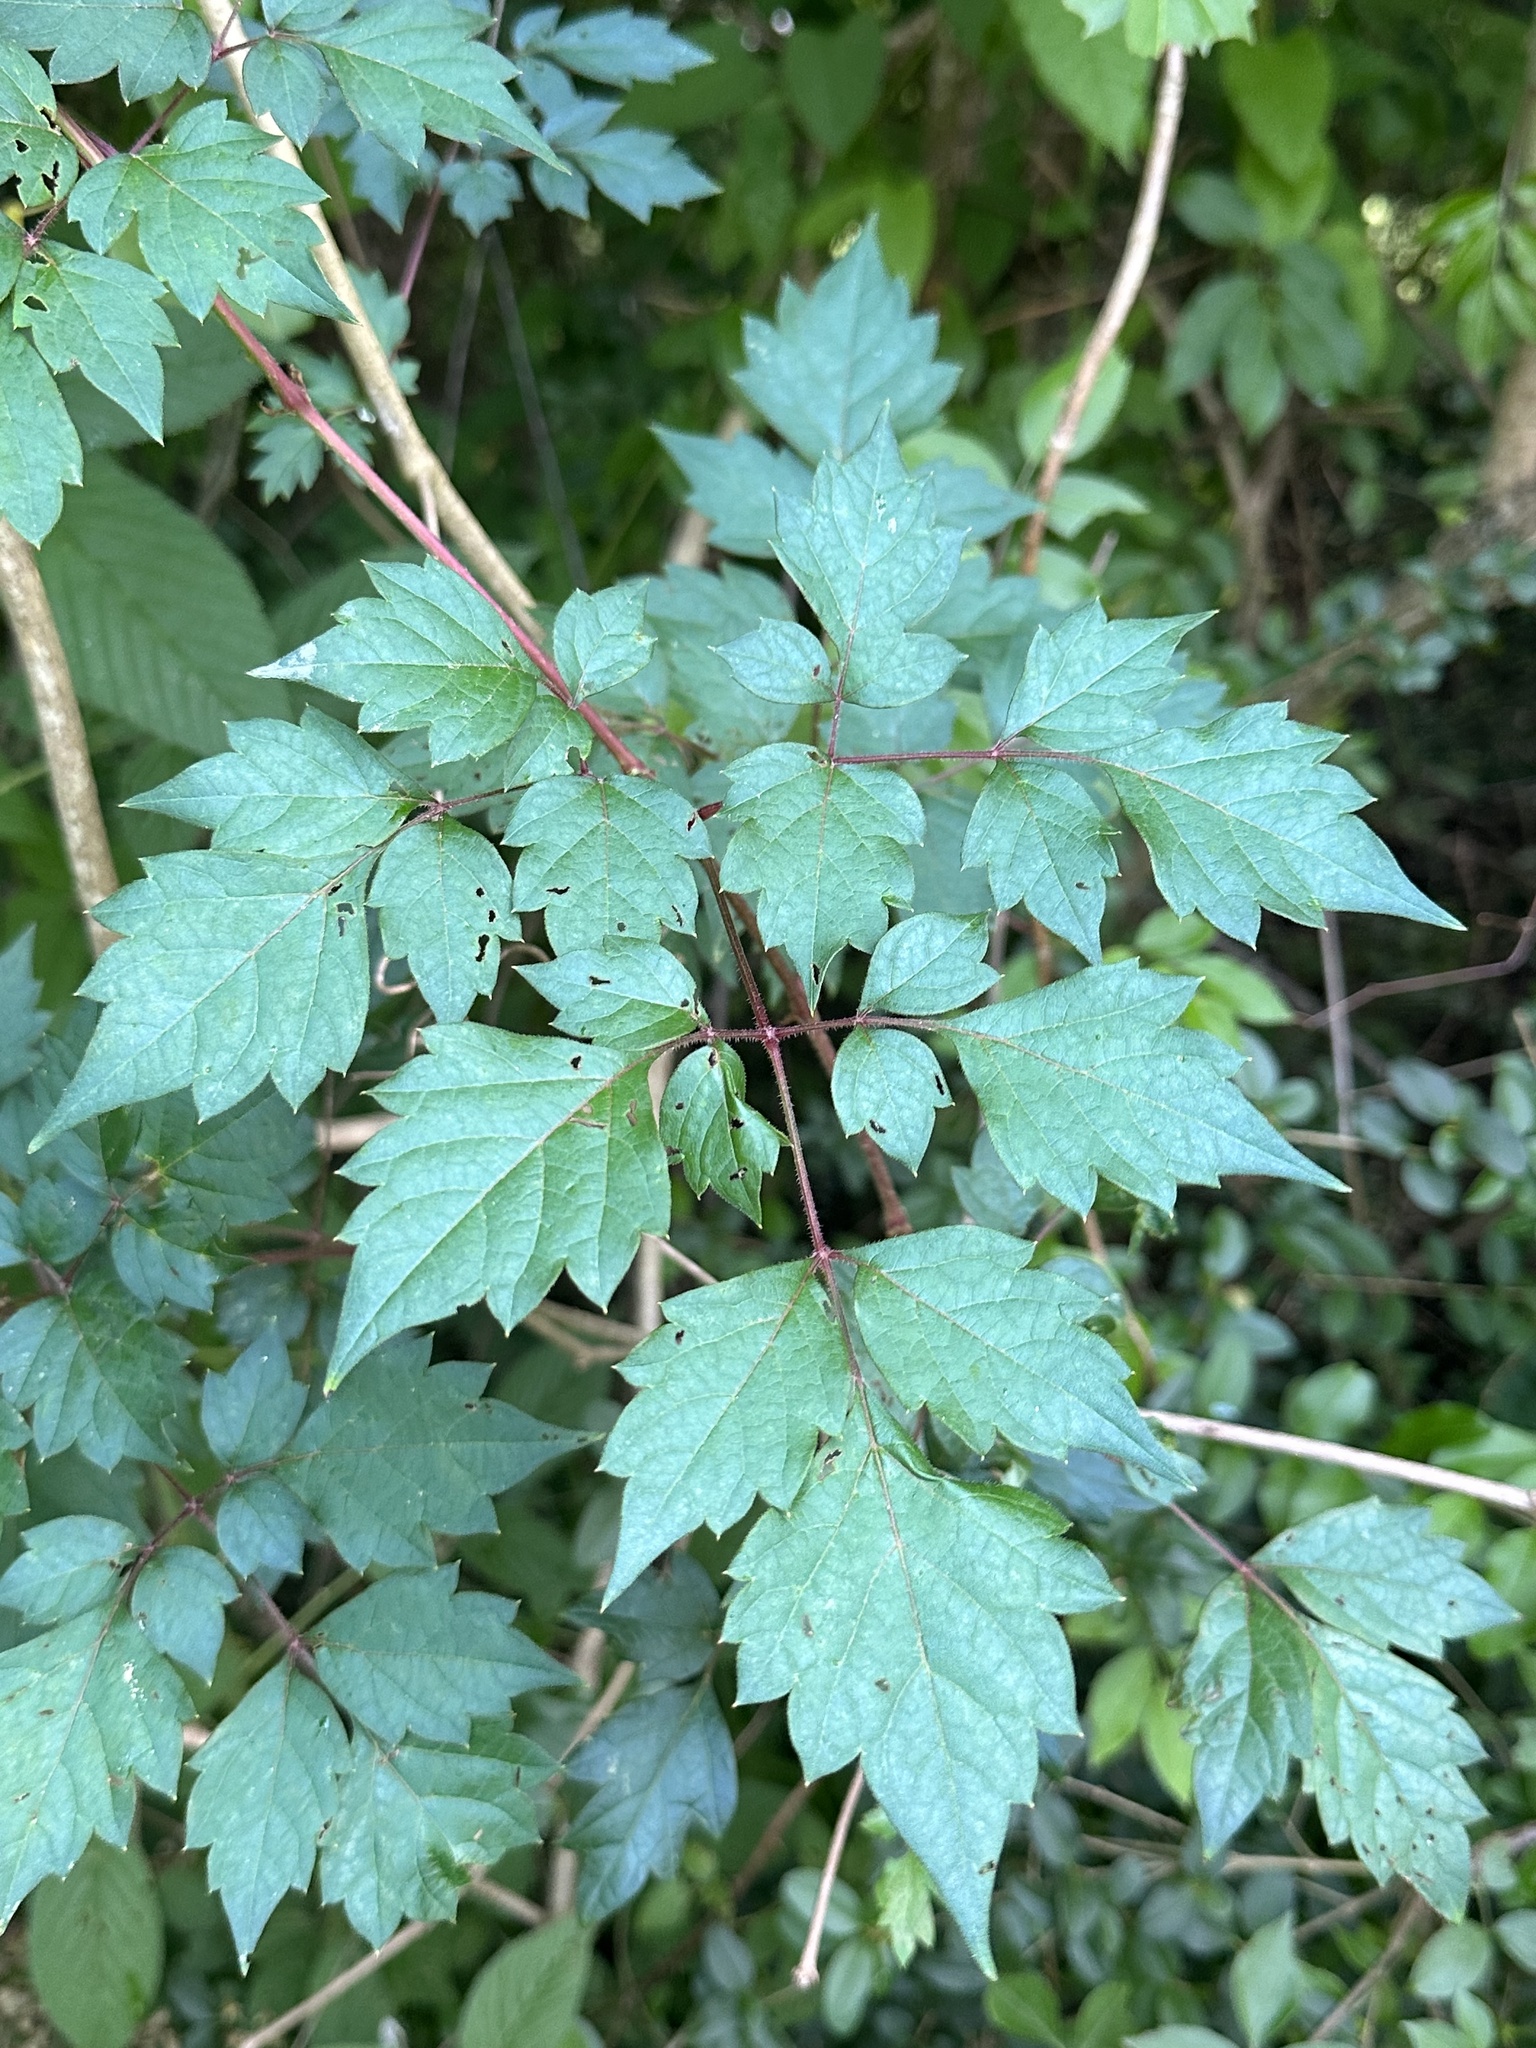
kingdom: Plantae
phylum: Tracheophyta
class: Magnoliopsida
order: Vitales
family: Vitaceae
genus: Nekemias
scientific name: Nekemias arborea
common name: Peppervine
